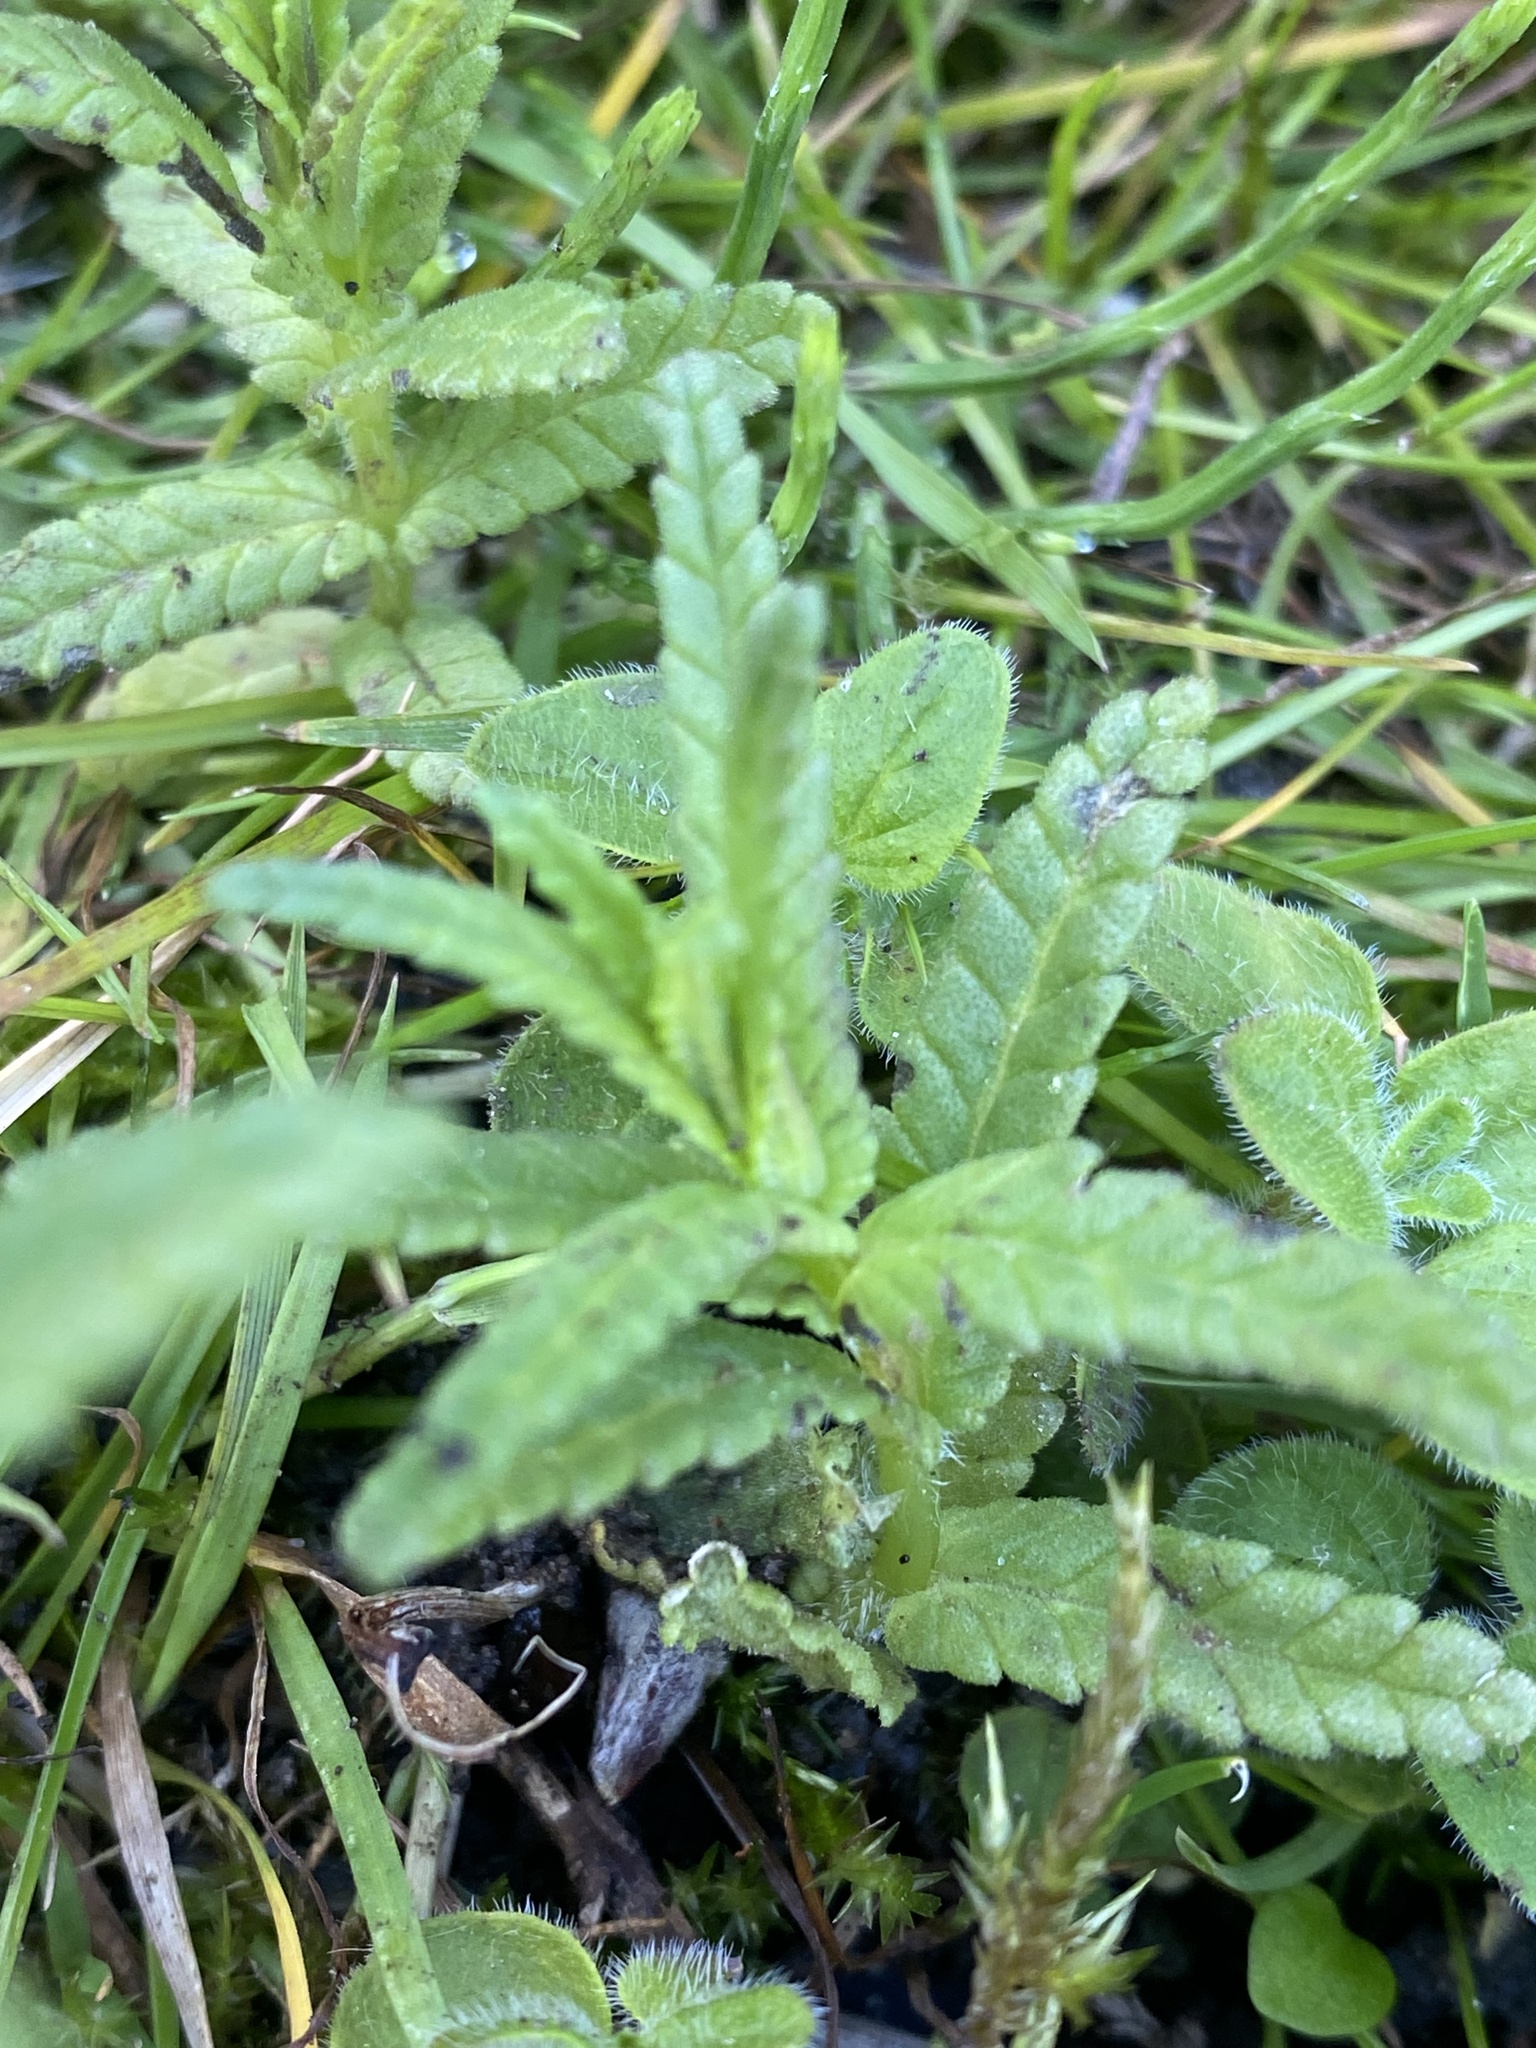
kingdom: Plantae
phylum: Tracheophyta
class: Magnoliopsida
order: Lamiales
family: Orobanchaceae
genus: Rhinanthus
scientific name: Rhinanthus minor
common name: Yellow-rattle
